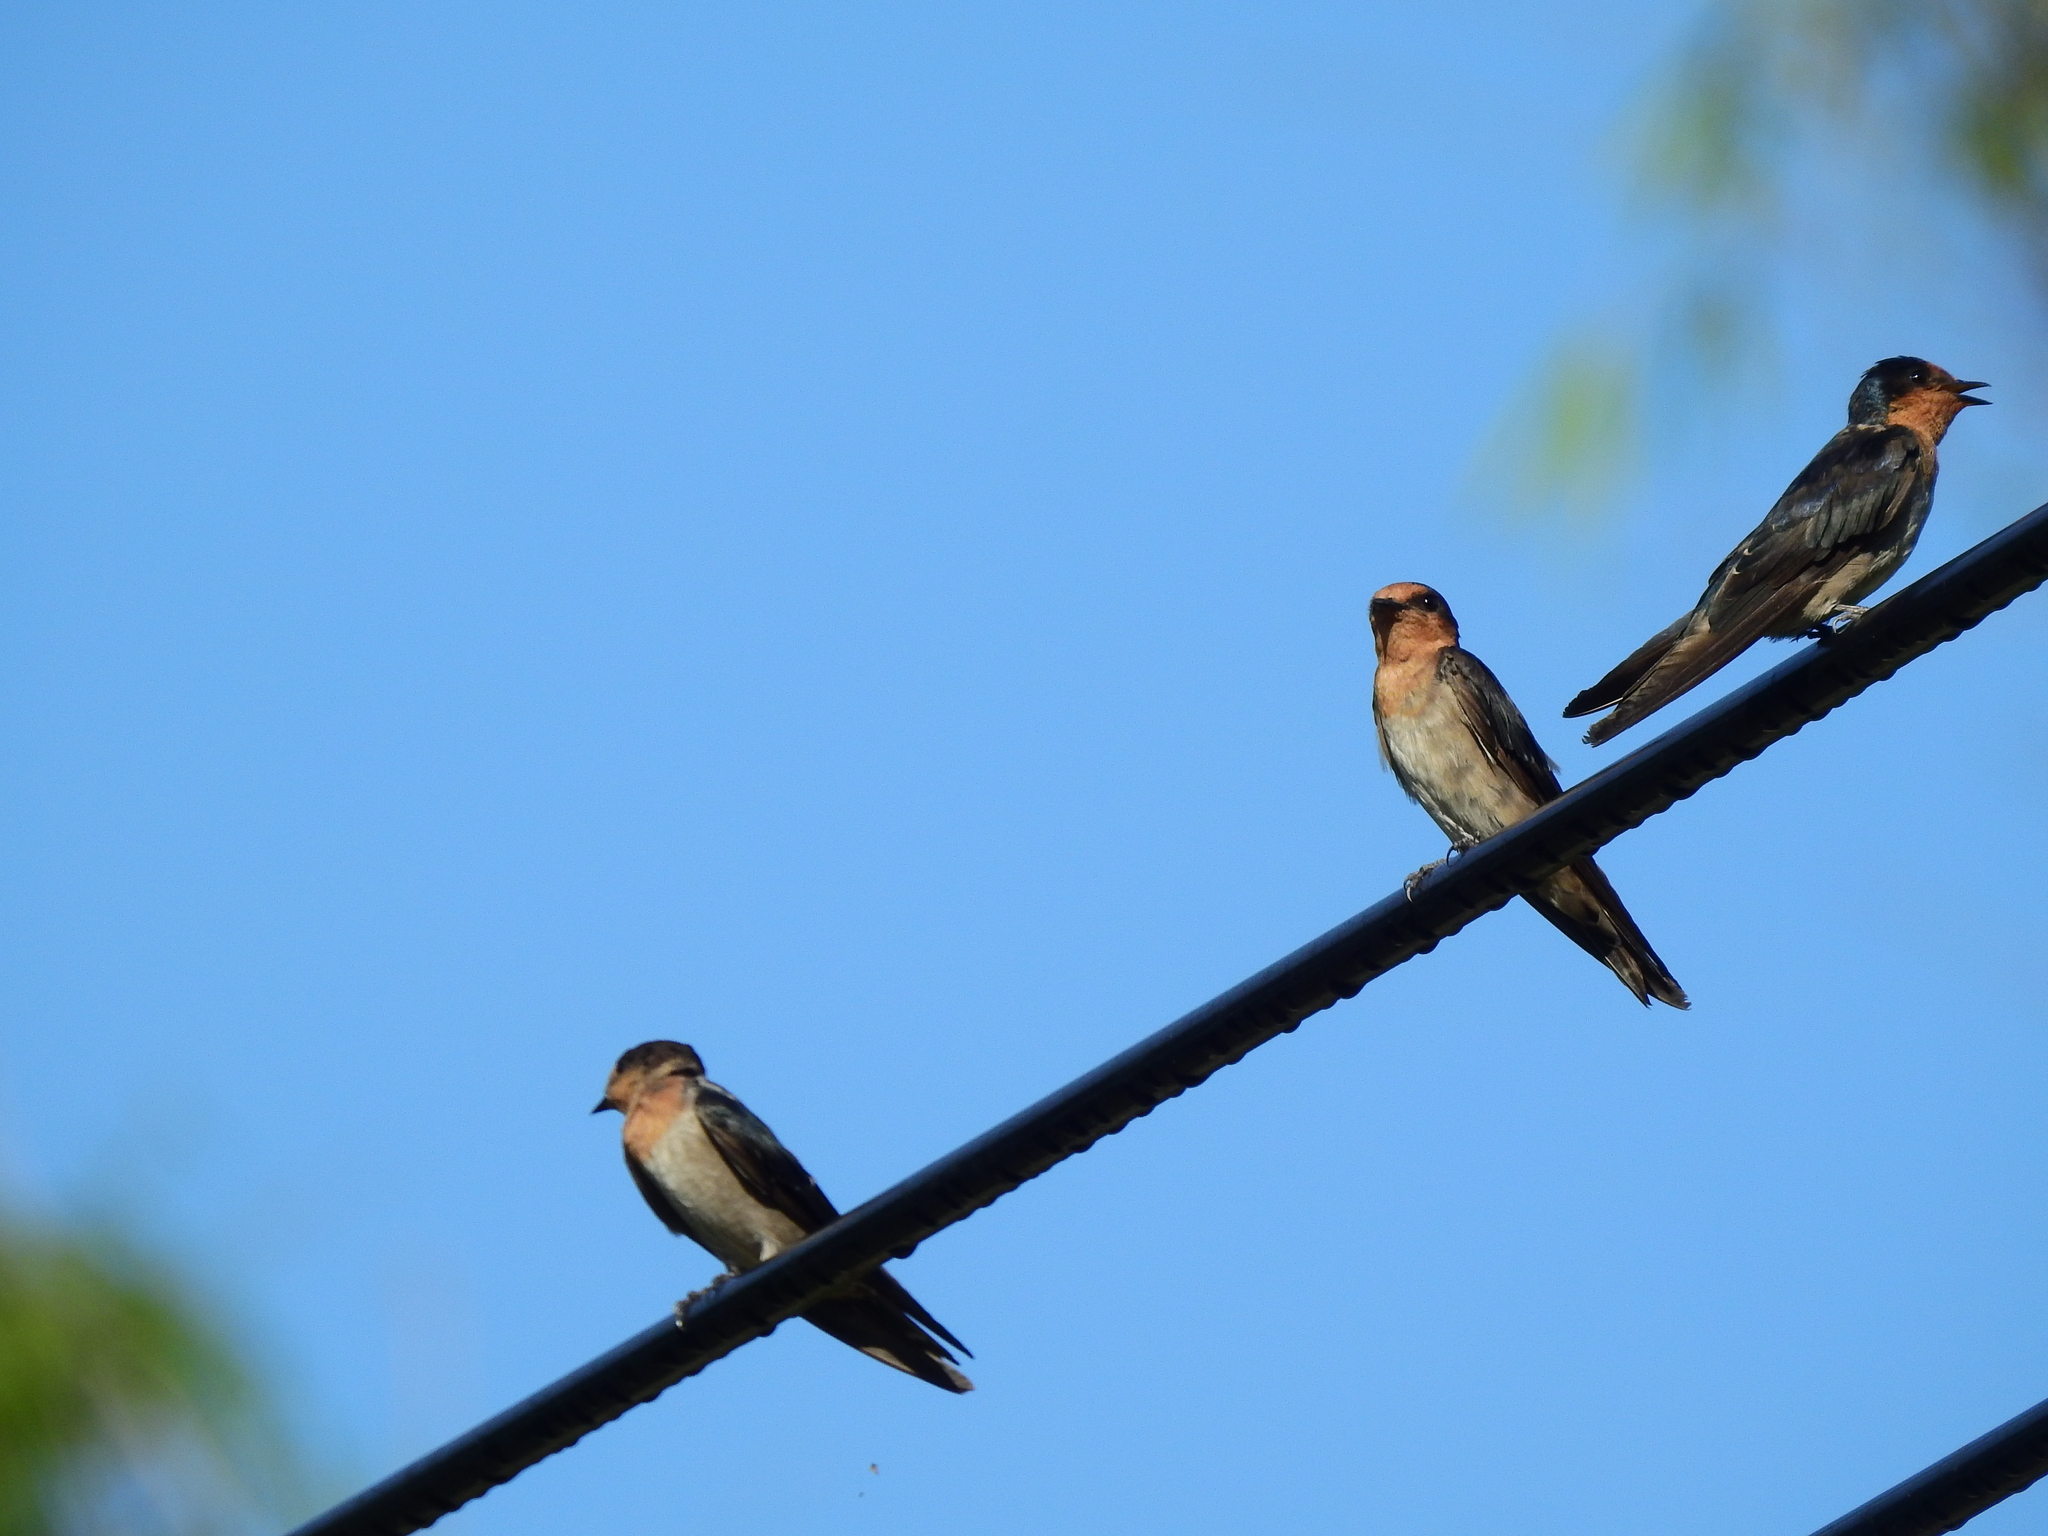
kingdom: Animalia
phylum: Chordata
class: Aves
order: Passeriformes
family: Hirundinidae
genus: Hirundo
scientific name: Hirundo tahitica
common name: Pacific swallow
